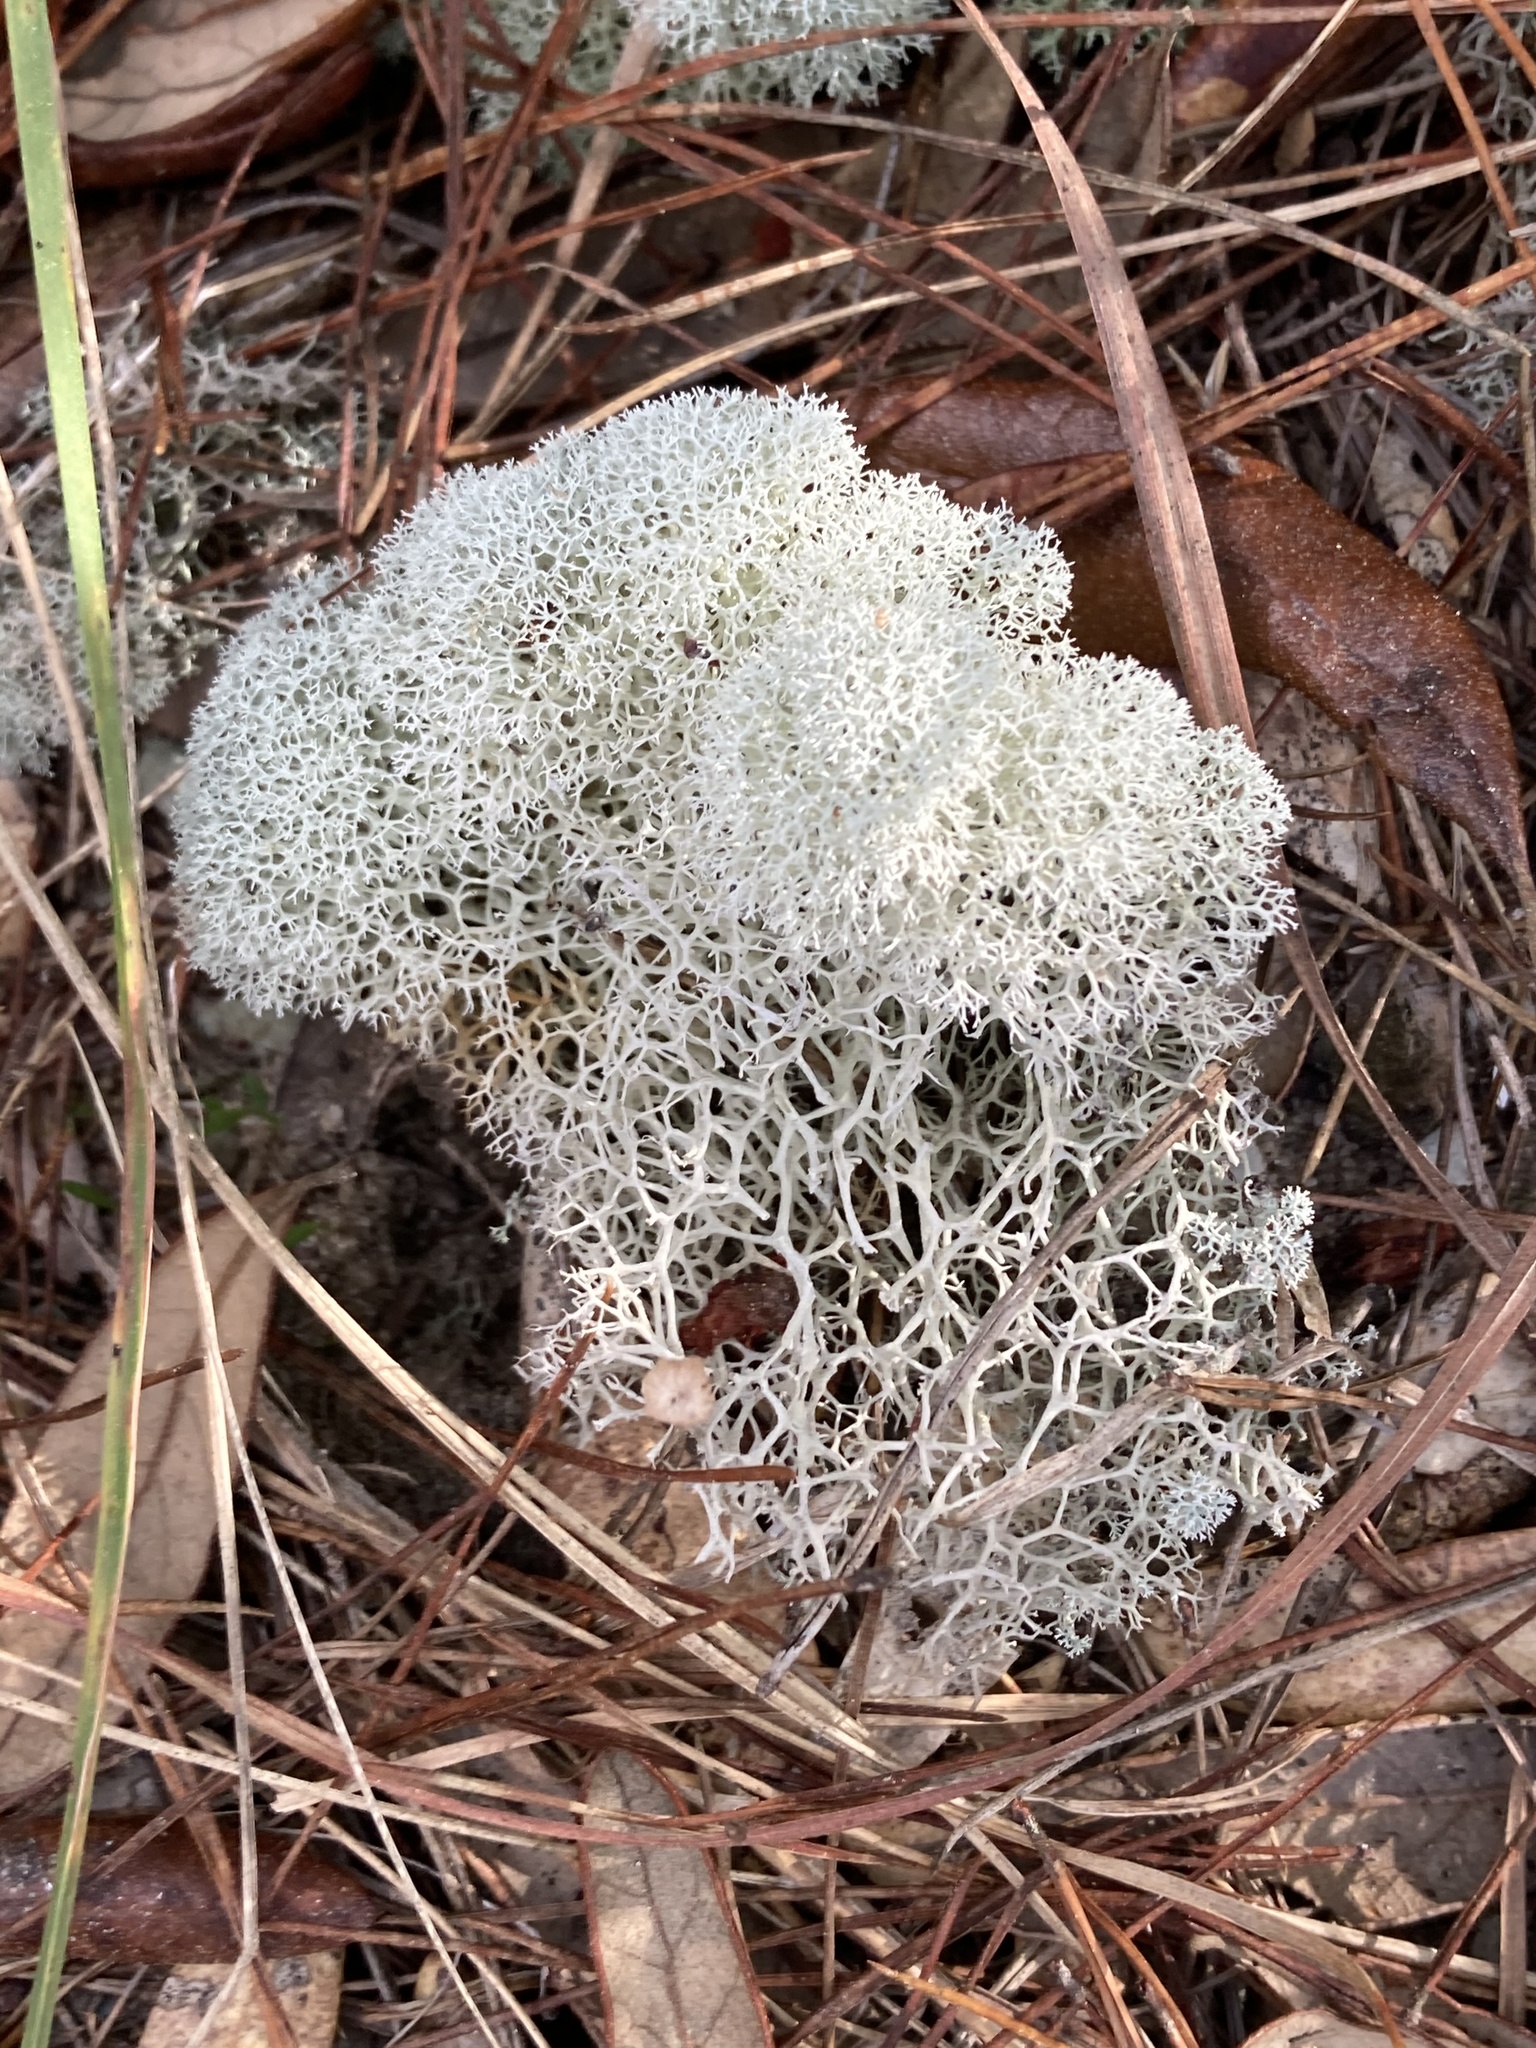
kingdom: Fungi
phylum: Ascomycota
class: Lecanoromycetes
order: Lecanorales
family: Cladoniaceae
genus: Cladonia
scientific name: Cladonia evansii
